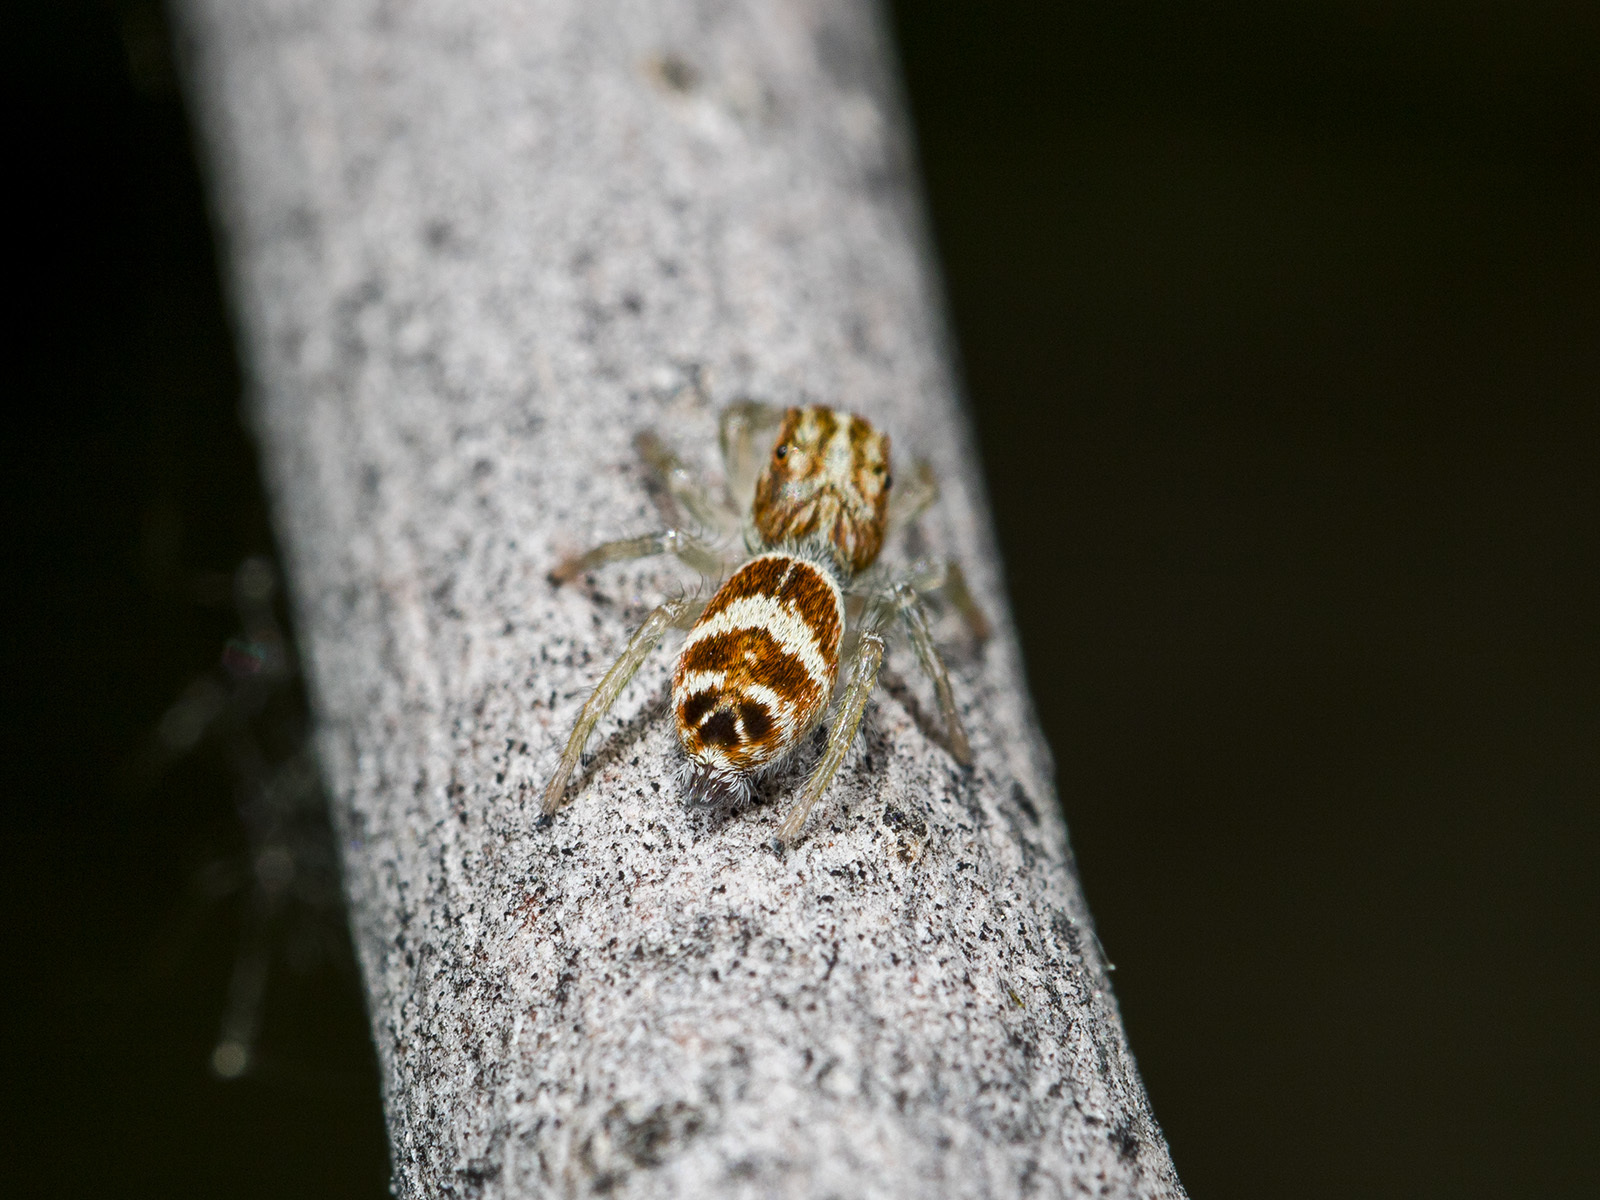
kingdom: Animalia
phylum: Arthropoda
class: Arachnida
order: Araneae
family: Salticidae
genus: Rudakius
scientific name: Rudakius cinctus
